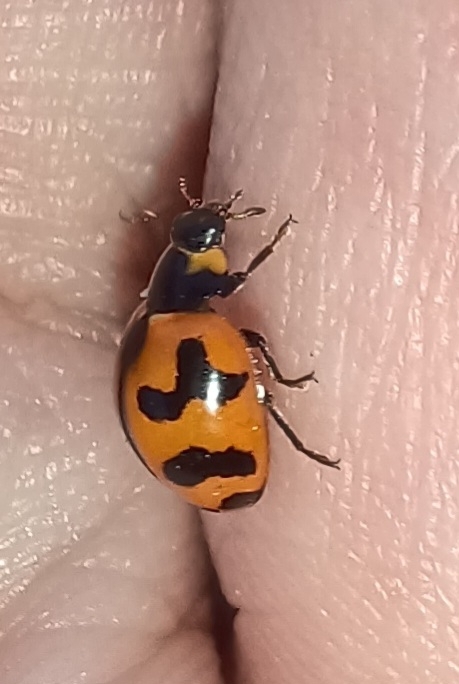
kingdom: Animalia
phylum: Arthropoda
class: Insecta
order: Coleoptera
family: Coccinellidae
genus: Coccinella
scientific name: Coccinella transversalis
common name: Transverse lady beetle
